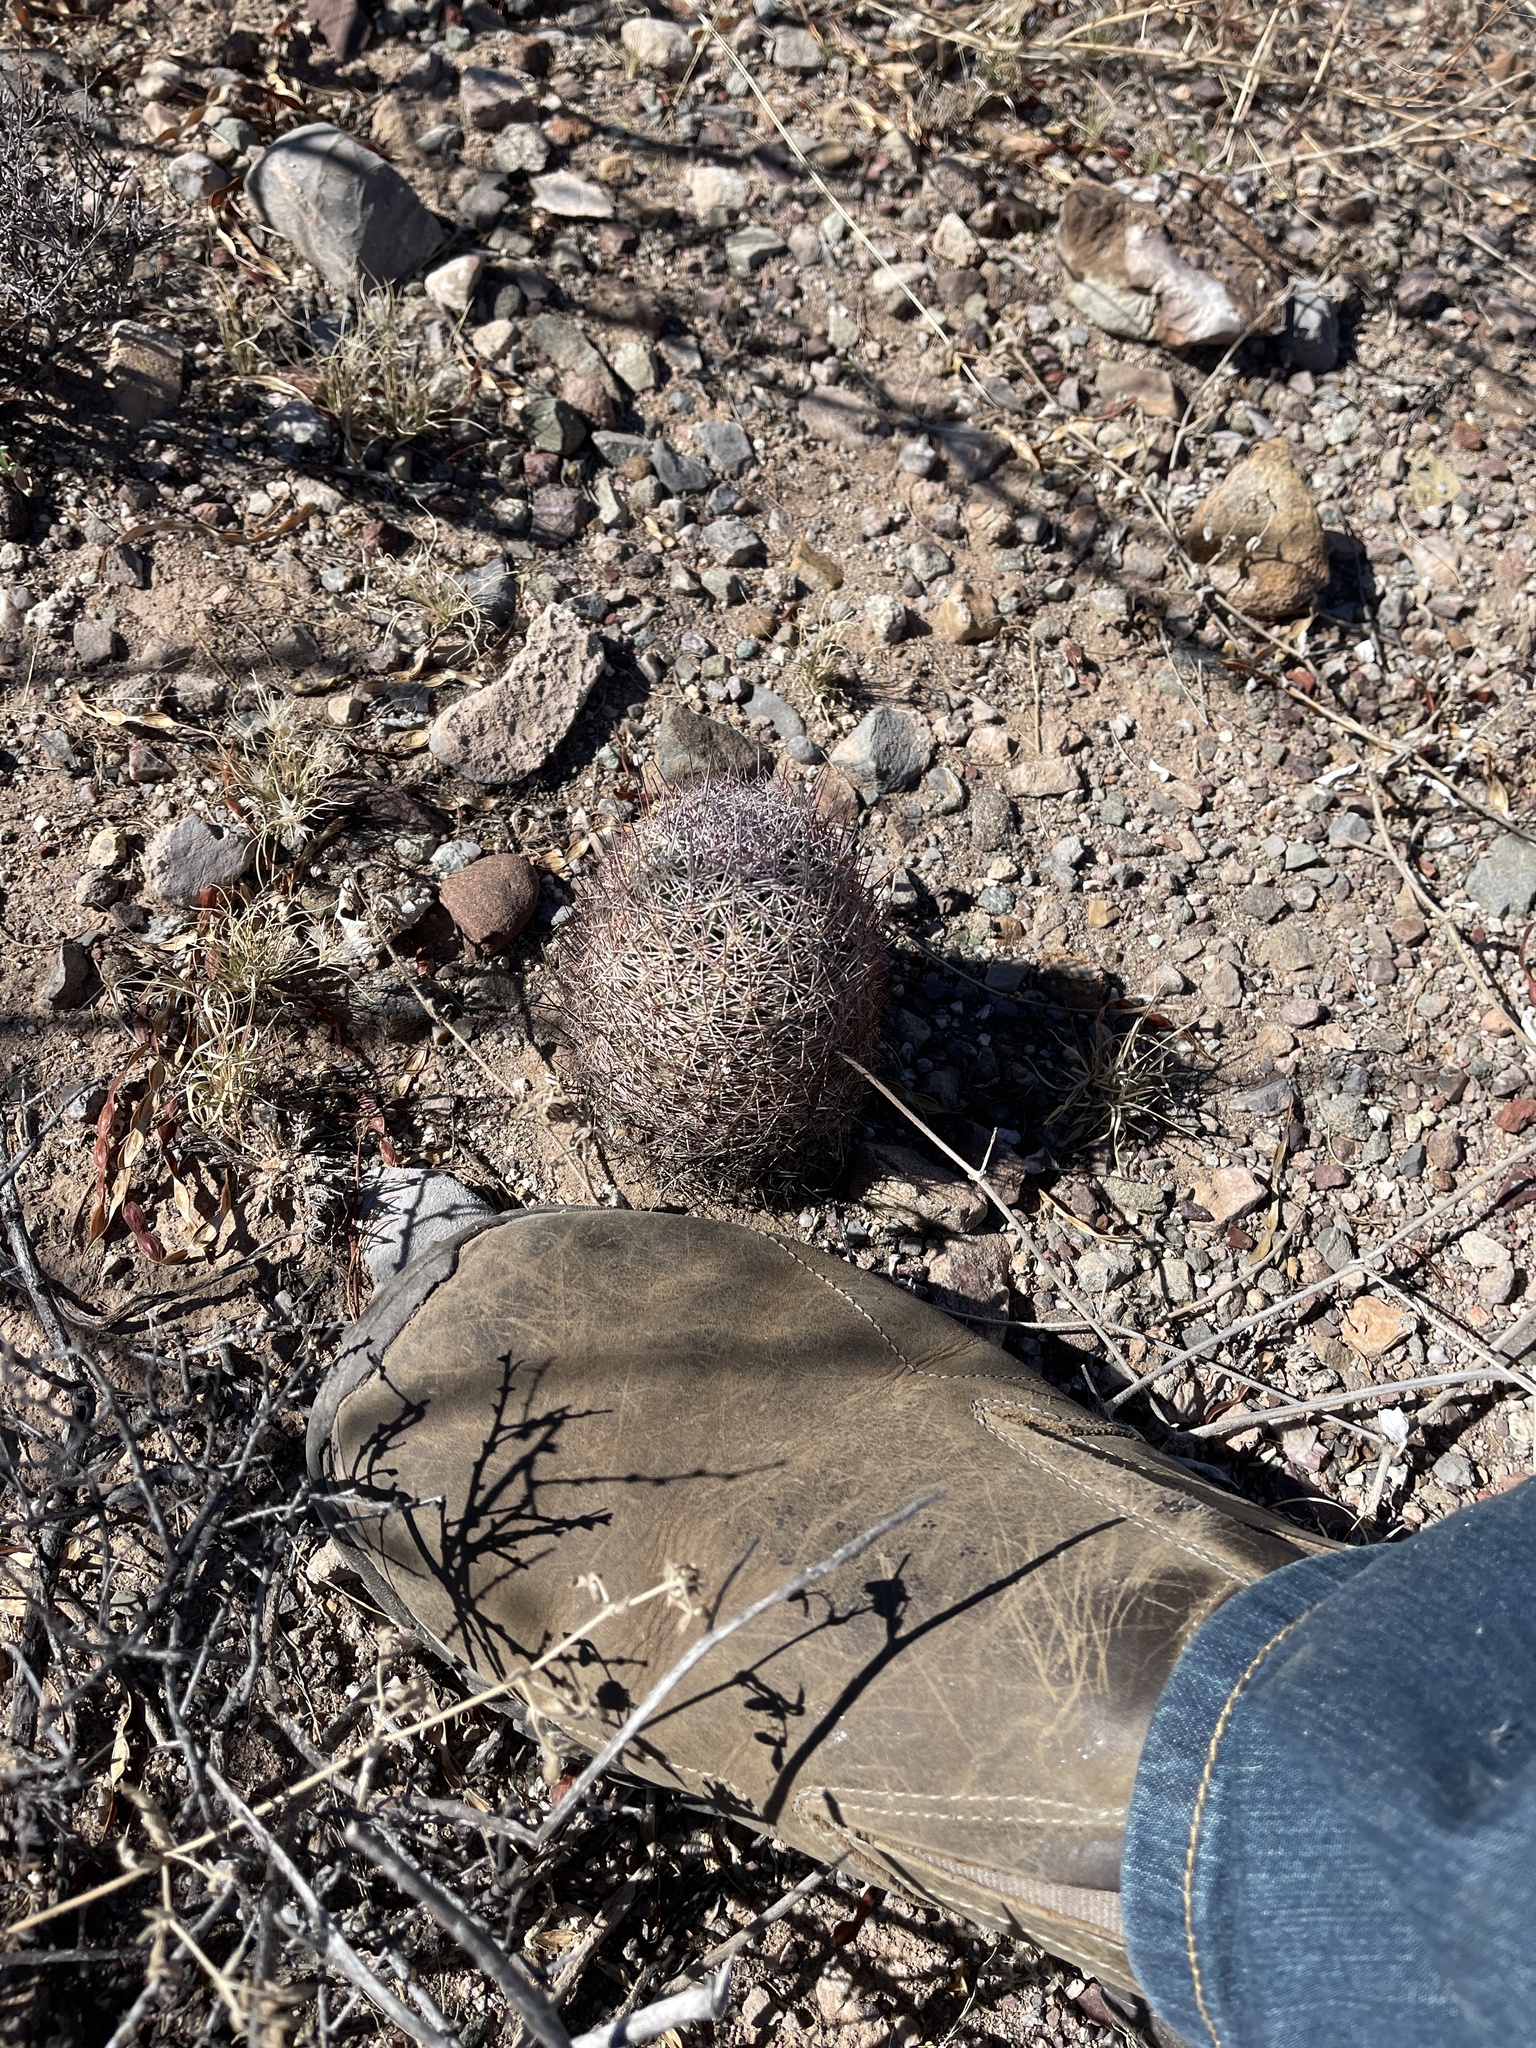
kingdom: Plantae
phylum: Tracheophyta
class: Magnoliopsida
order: Caryophyllales
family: Cactaceae
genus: Sclerocactus
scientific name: Sclerocactus johnsonii
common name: Eight-spine fishhook cactus
